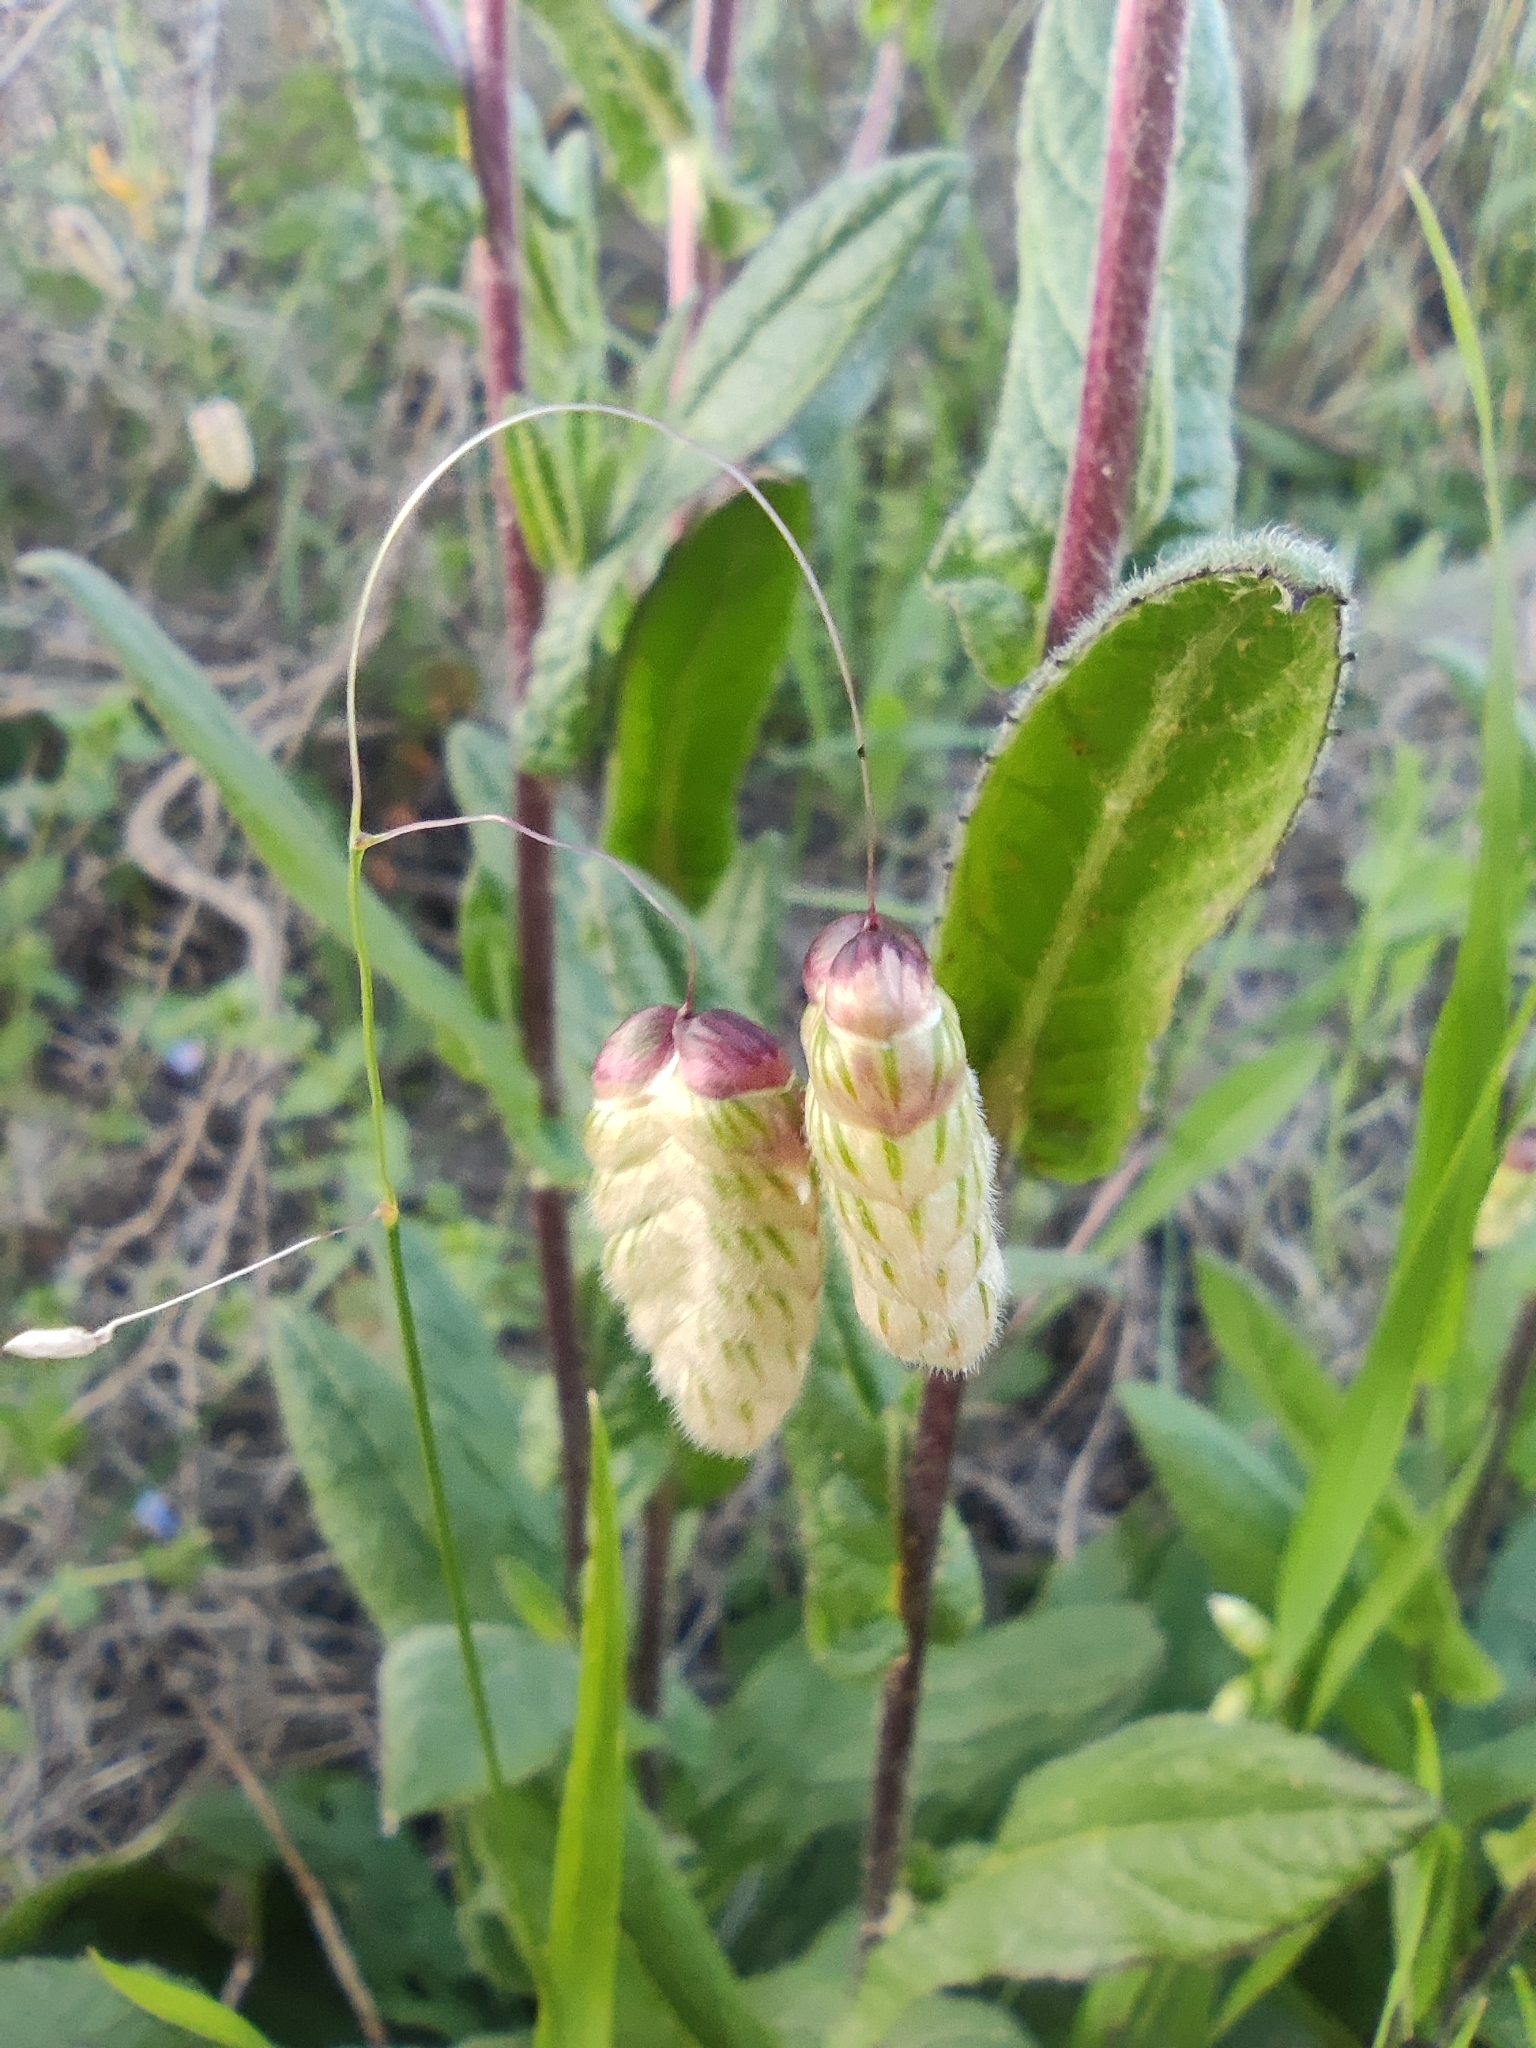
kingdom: Plantae
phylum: Tracheophyta
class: Liliopsida
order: Poales
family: Poaceae
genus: Briza
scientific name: Briza maxima
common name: Big quakinggrass
